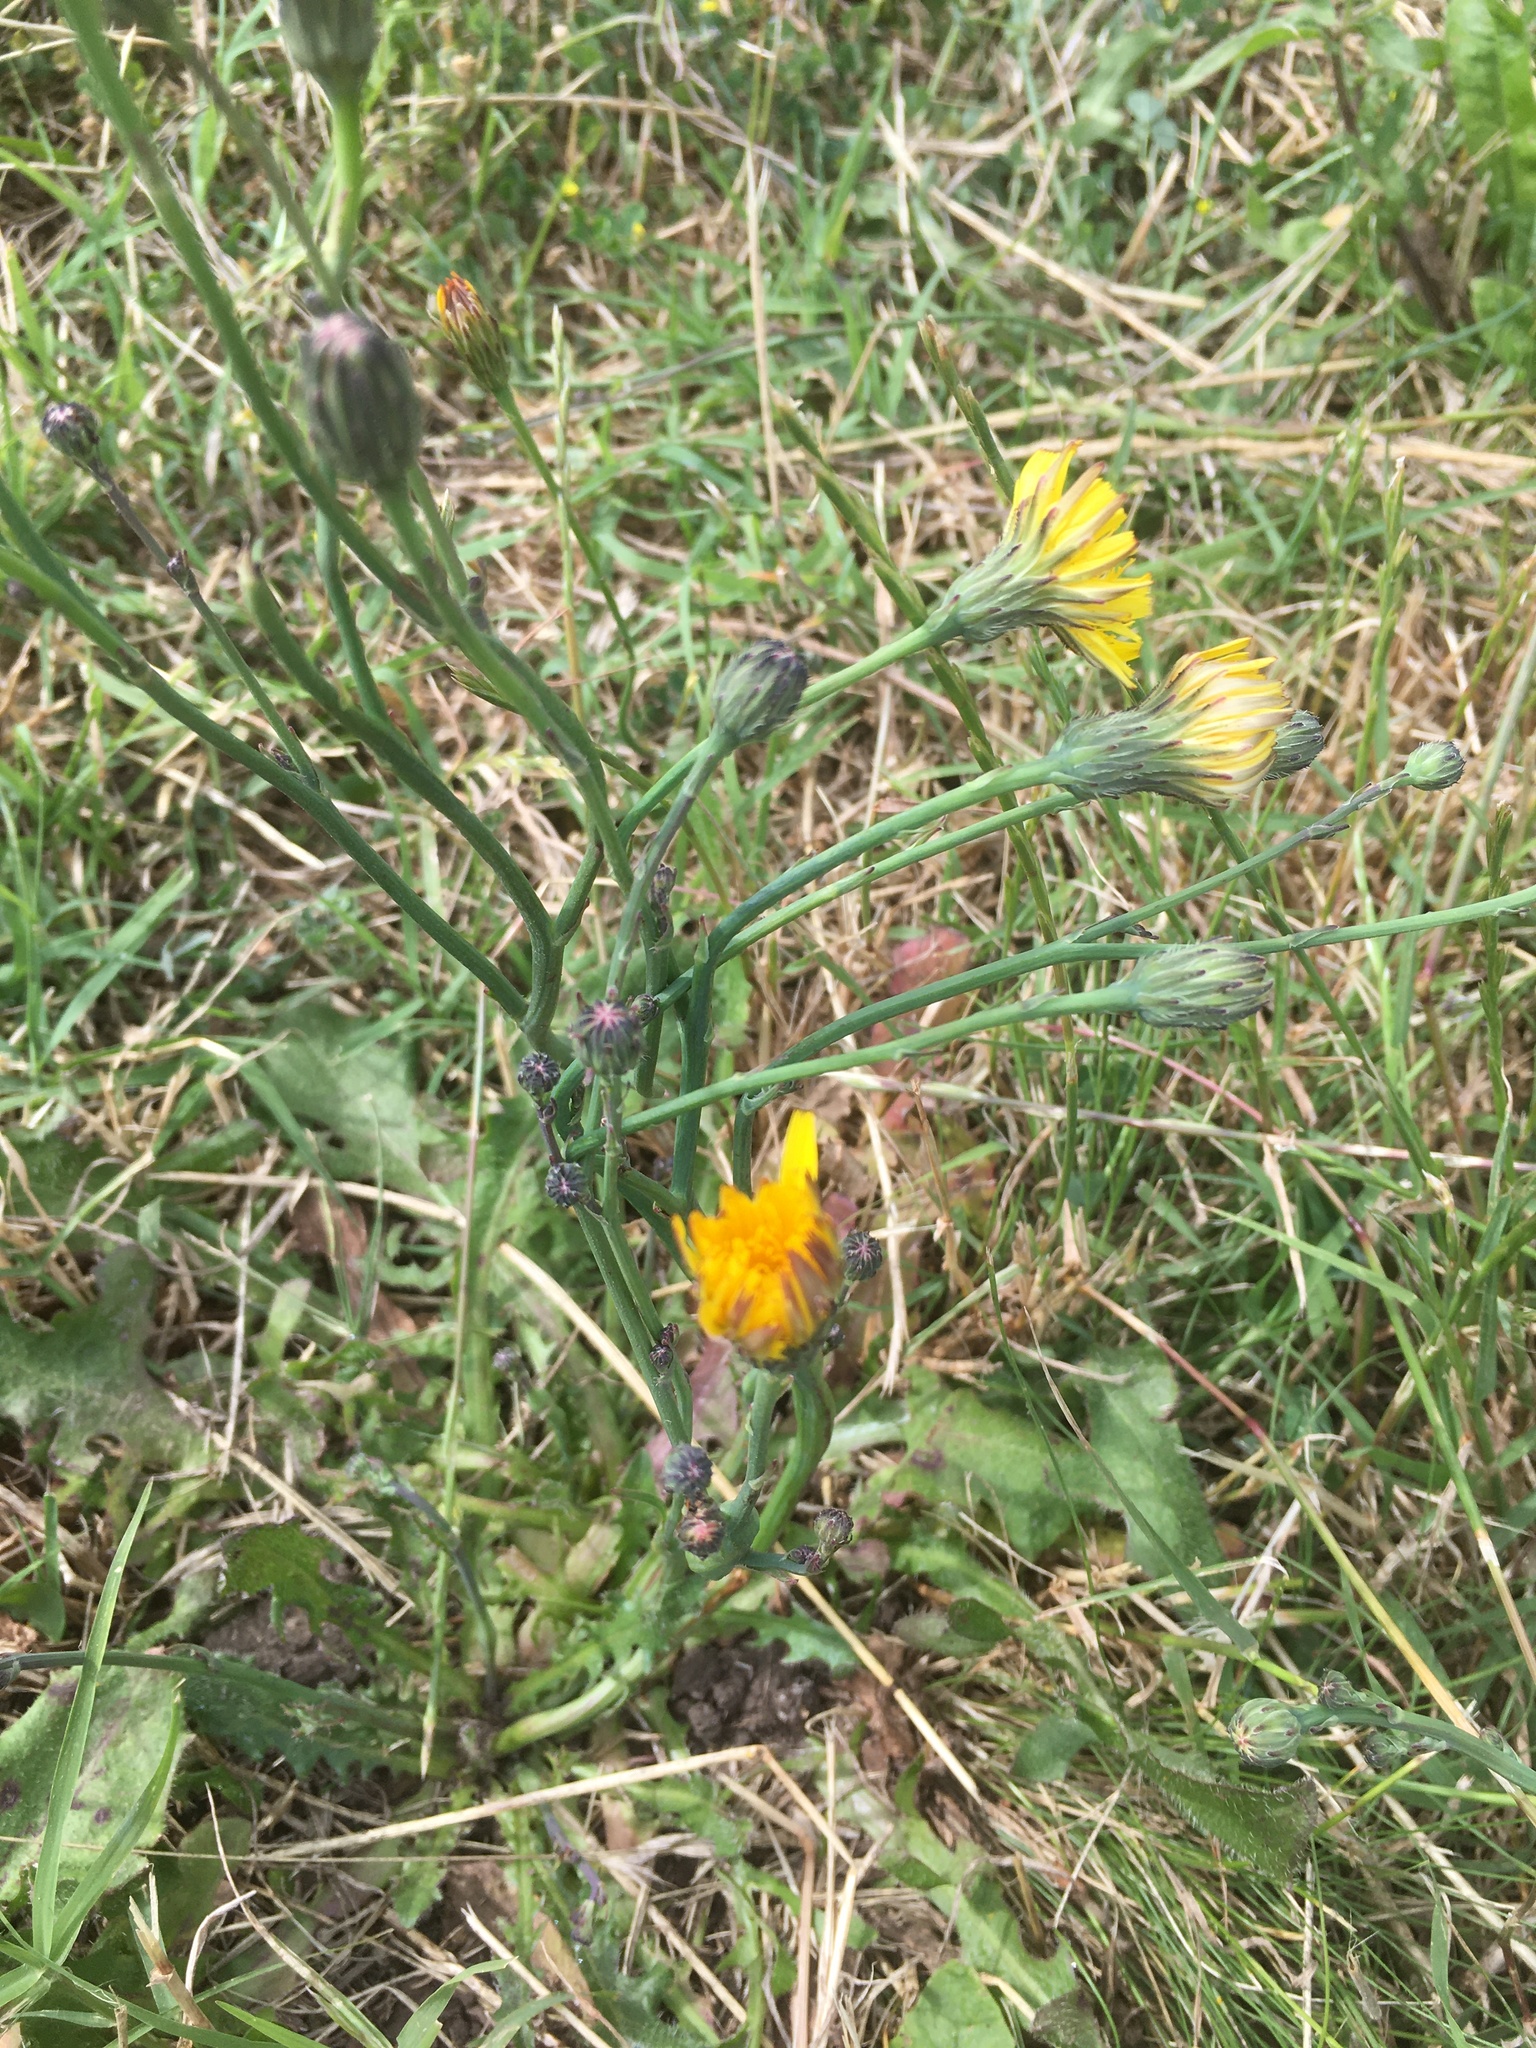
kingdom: Plantae
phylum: Tracheophyta
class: Magnoliopsida
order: Asterales
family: Asteraceae
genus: Hypochaeris
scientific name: Hypochaeris radicata
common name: Flatweed
